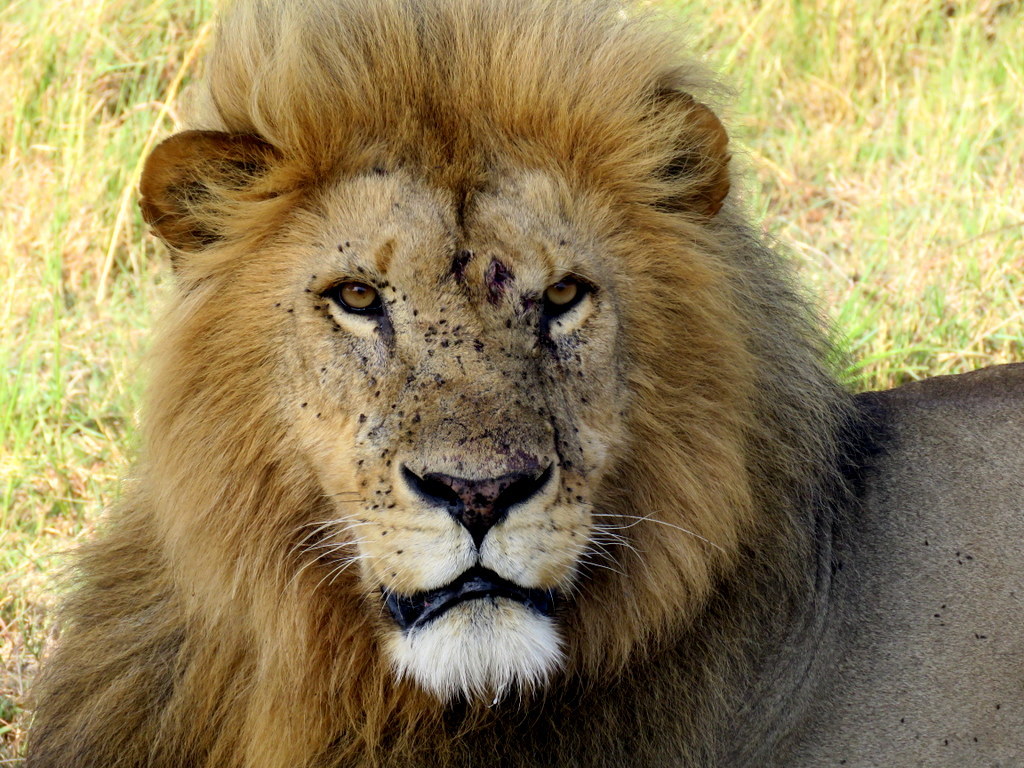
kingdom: Animalia
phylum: Chordata
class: Mammalia
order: Carnivora
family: Felidae
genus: Panthera
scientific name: Panthera leo
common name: Lion
